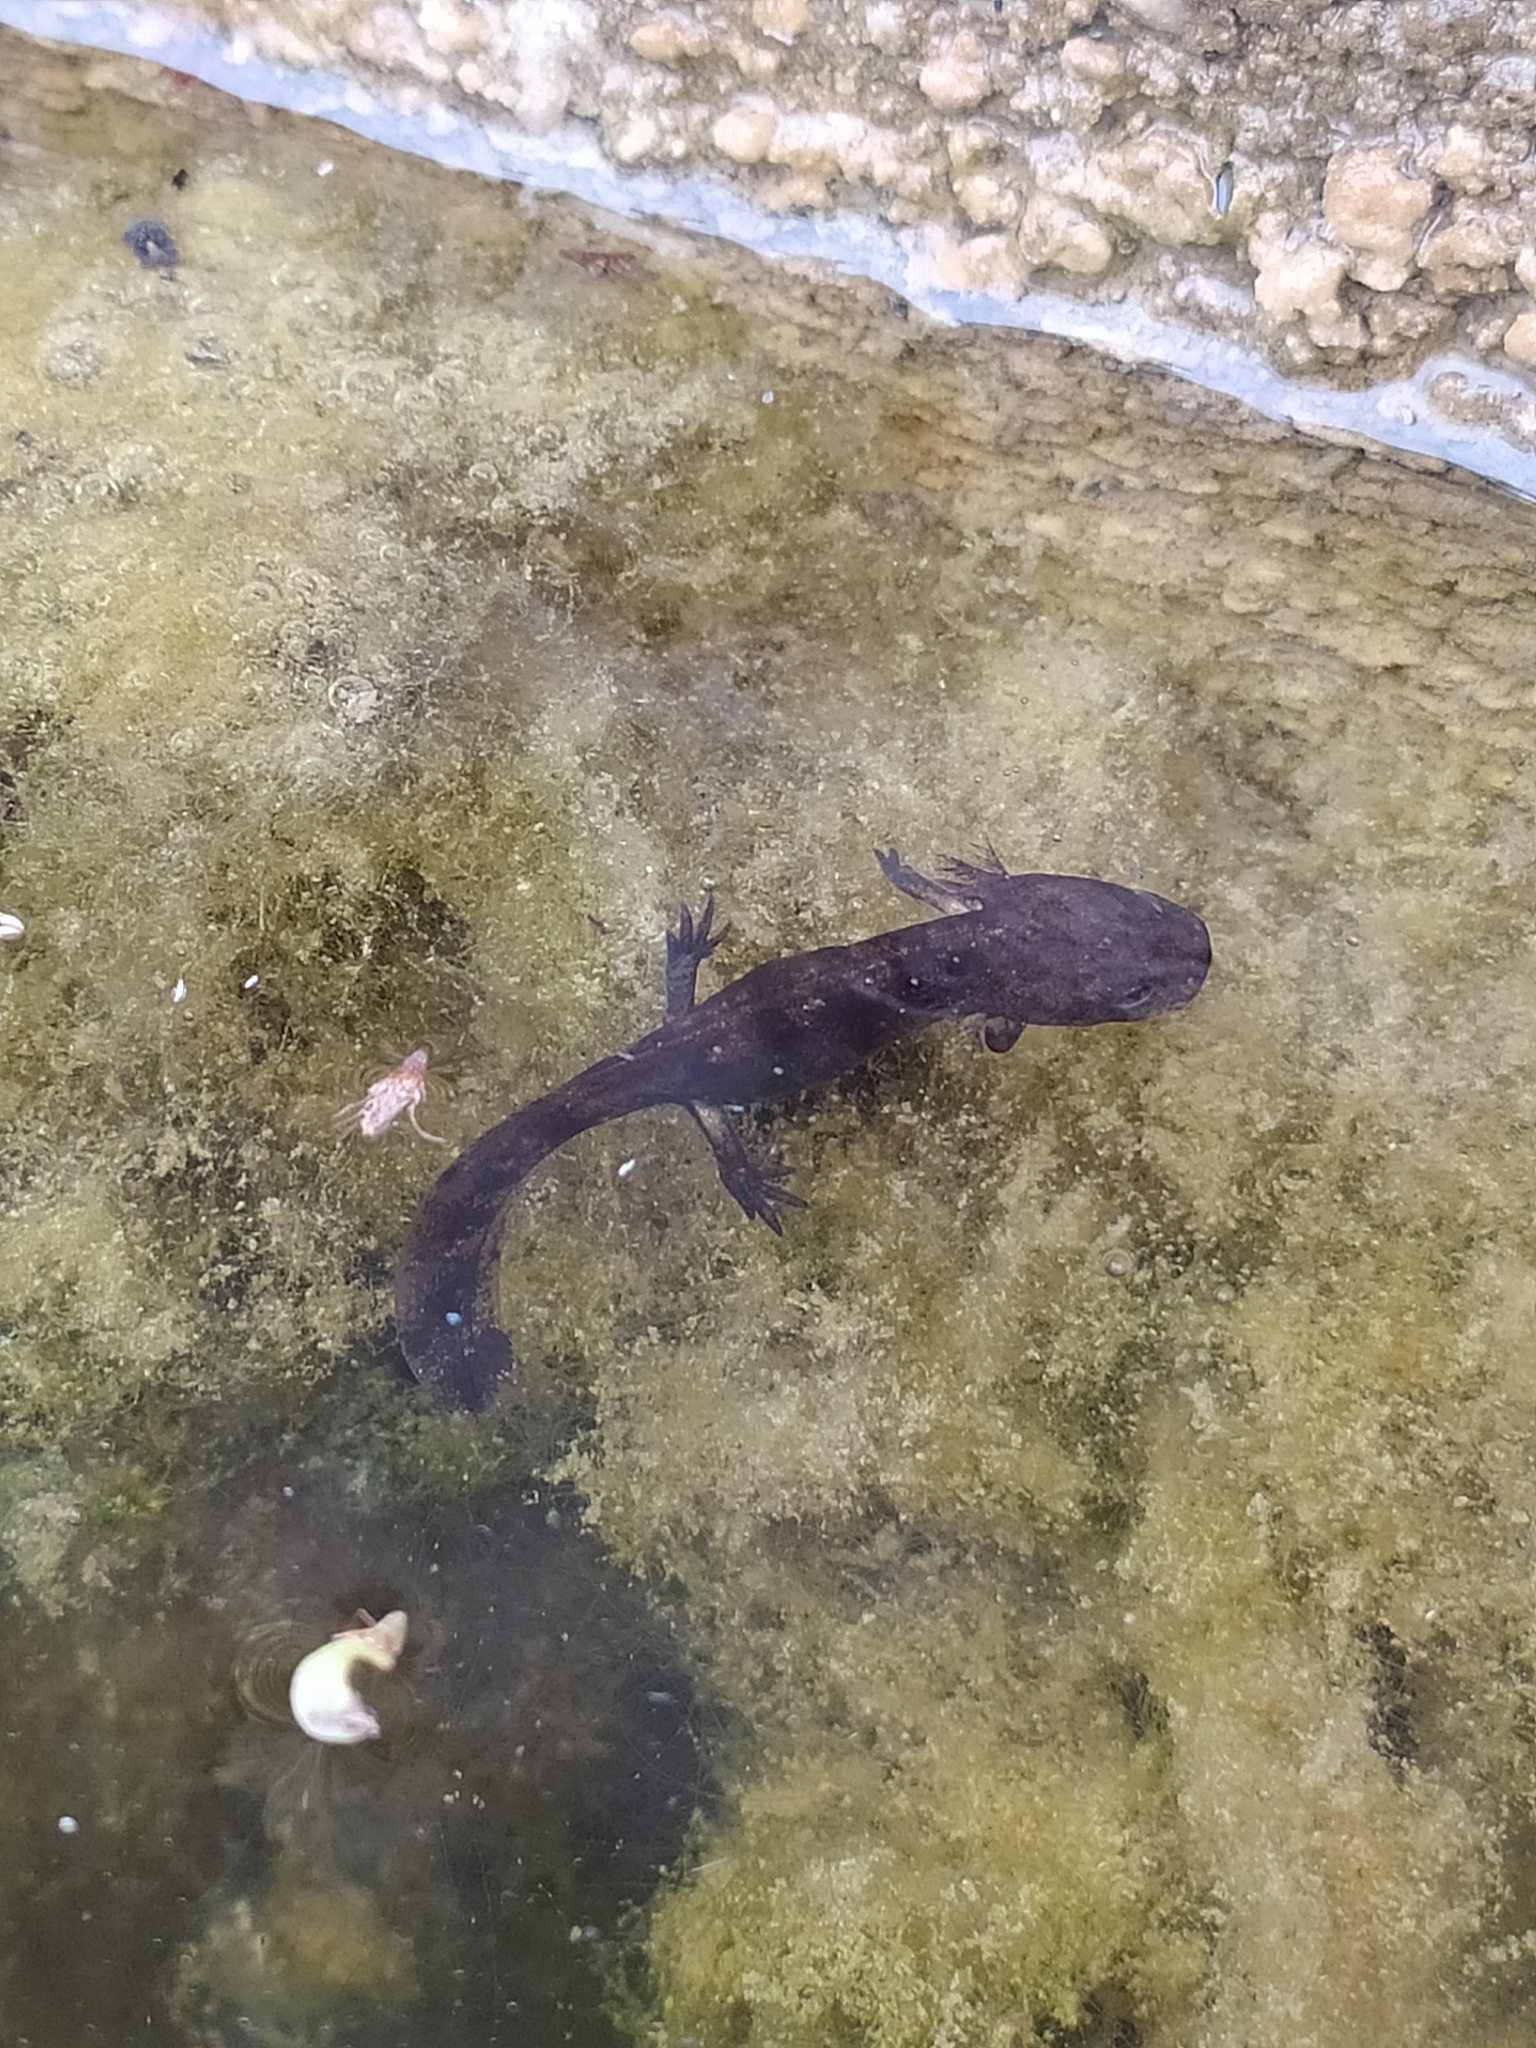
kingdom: Animalia
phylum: Chordata
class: Amphibia
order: Caudata
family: Salamandridae
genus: Salamandra
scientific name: Salamandra salamandra
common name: Fire salamander
